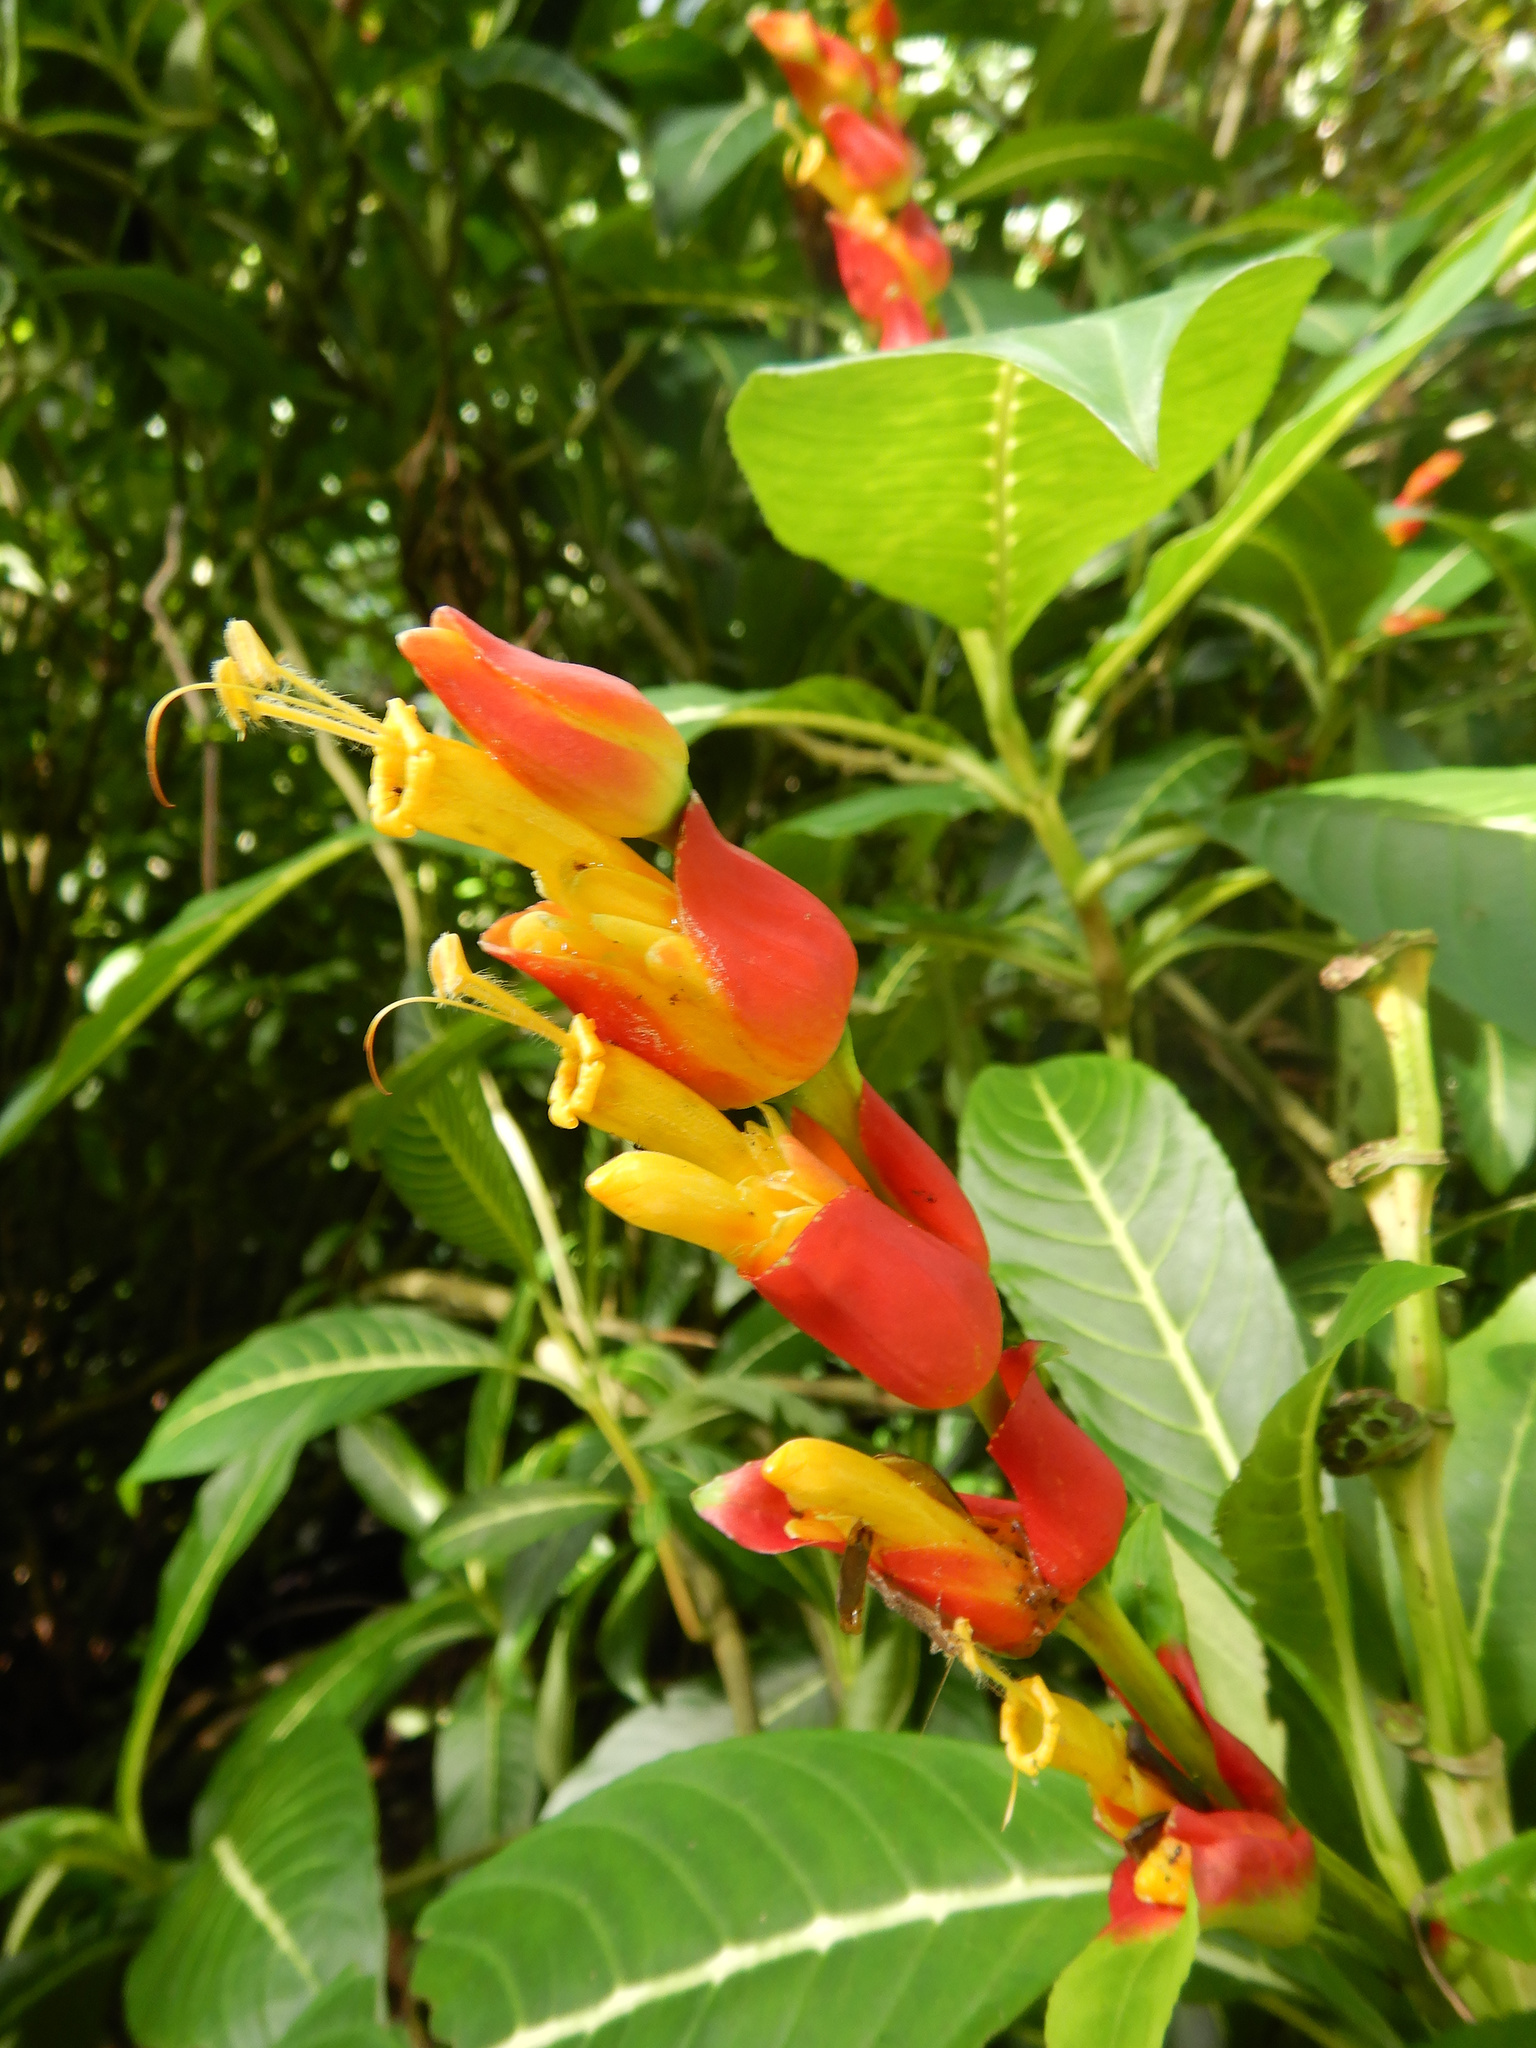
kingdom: Plantae
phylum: Tracheophyta
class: Magnoliopsida
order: Lamiales
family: Acanthaceae
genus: Sanchezia
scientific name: Sanchezia oblonga
